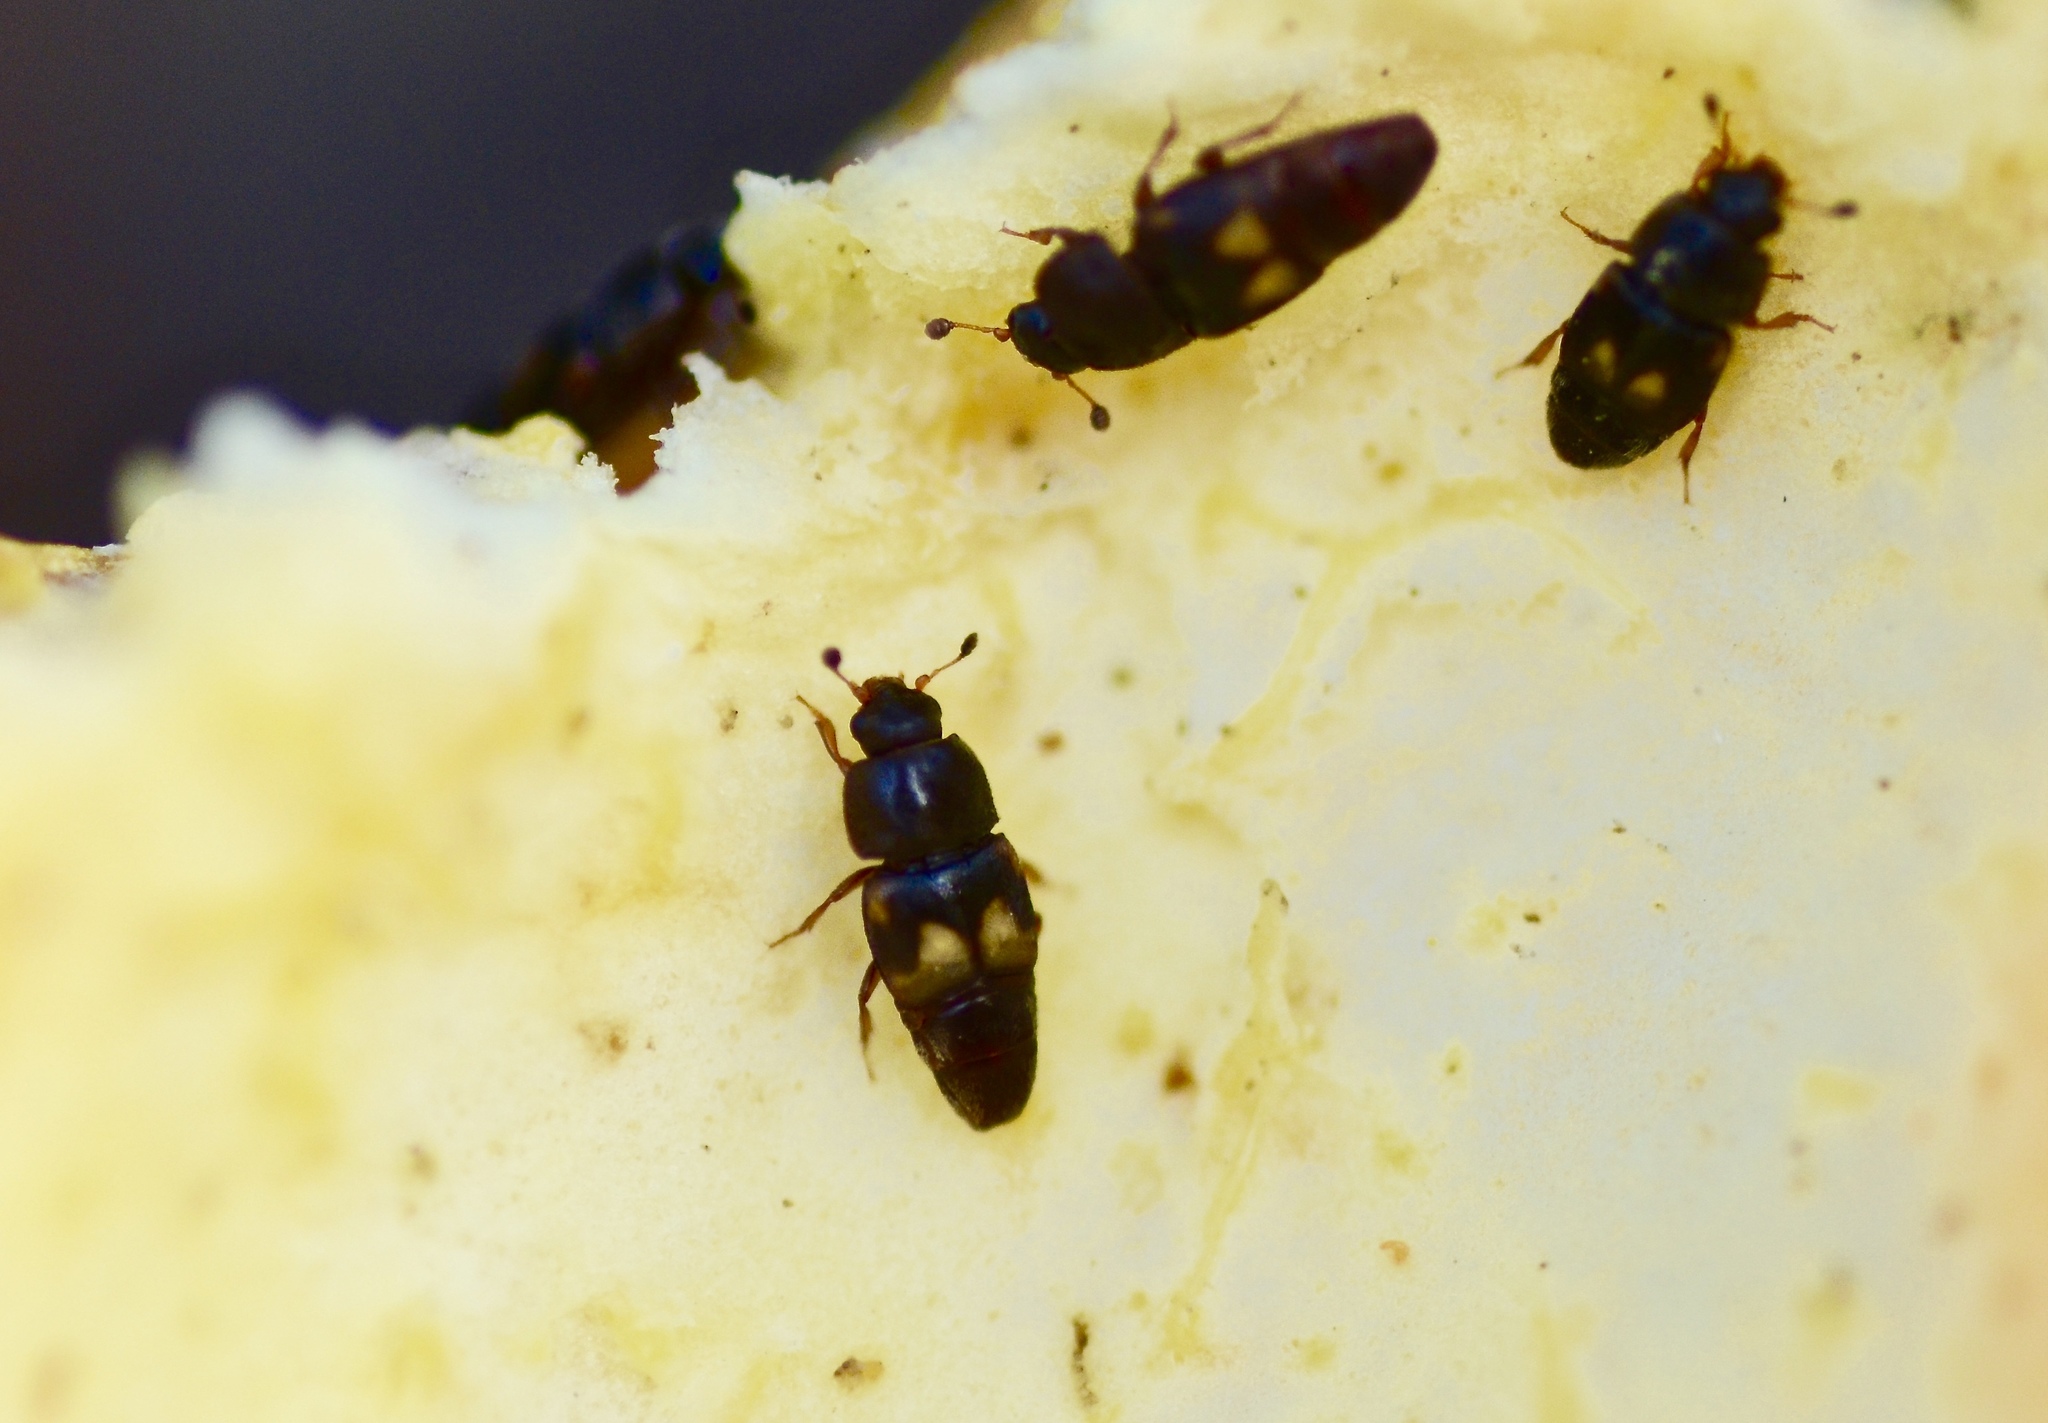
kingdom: Animalia
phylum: Arthropoda
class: Insecta
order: Coleoptera
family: Nitidulidae
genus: Carpophilus
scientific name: Carpophilus hemipterus
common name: Dried fruit beetle
